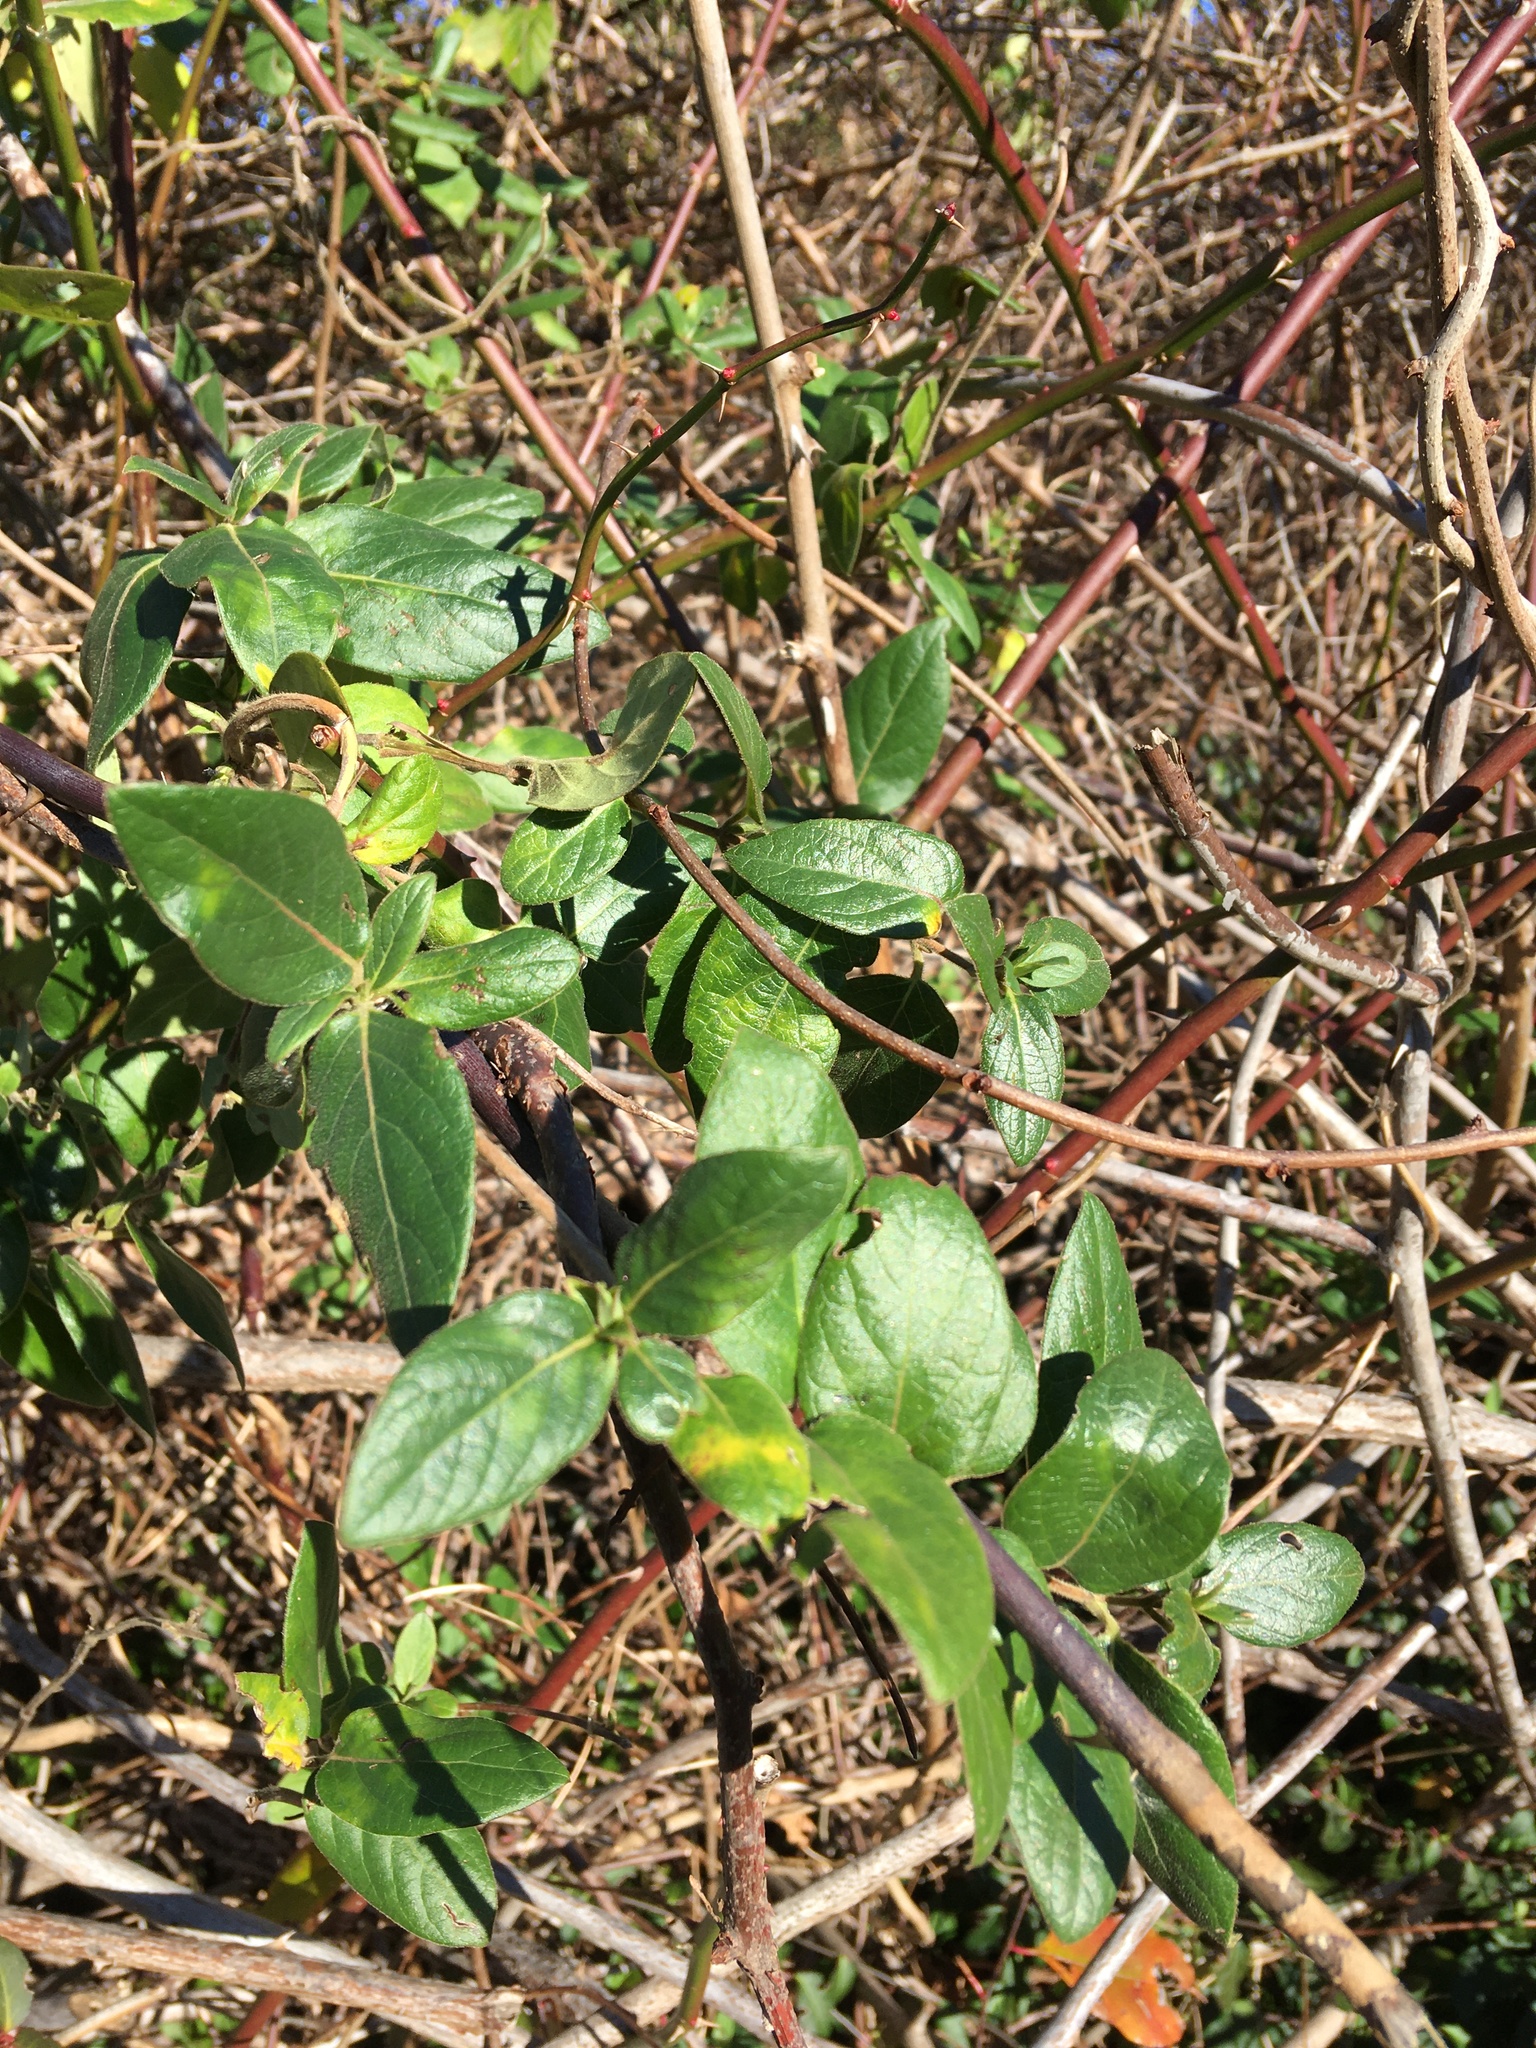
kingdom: Plantae
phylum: Tracheophyta
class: Magnoliopsida
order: Dipsacales
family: Caprifoliaceae
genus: Lonicera
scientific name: Lonicera japonica
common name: Japanese honeysuckle
